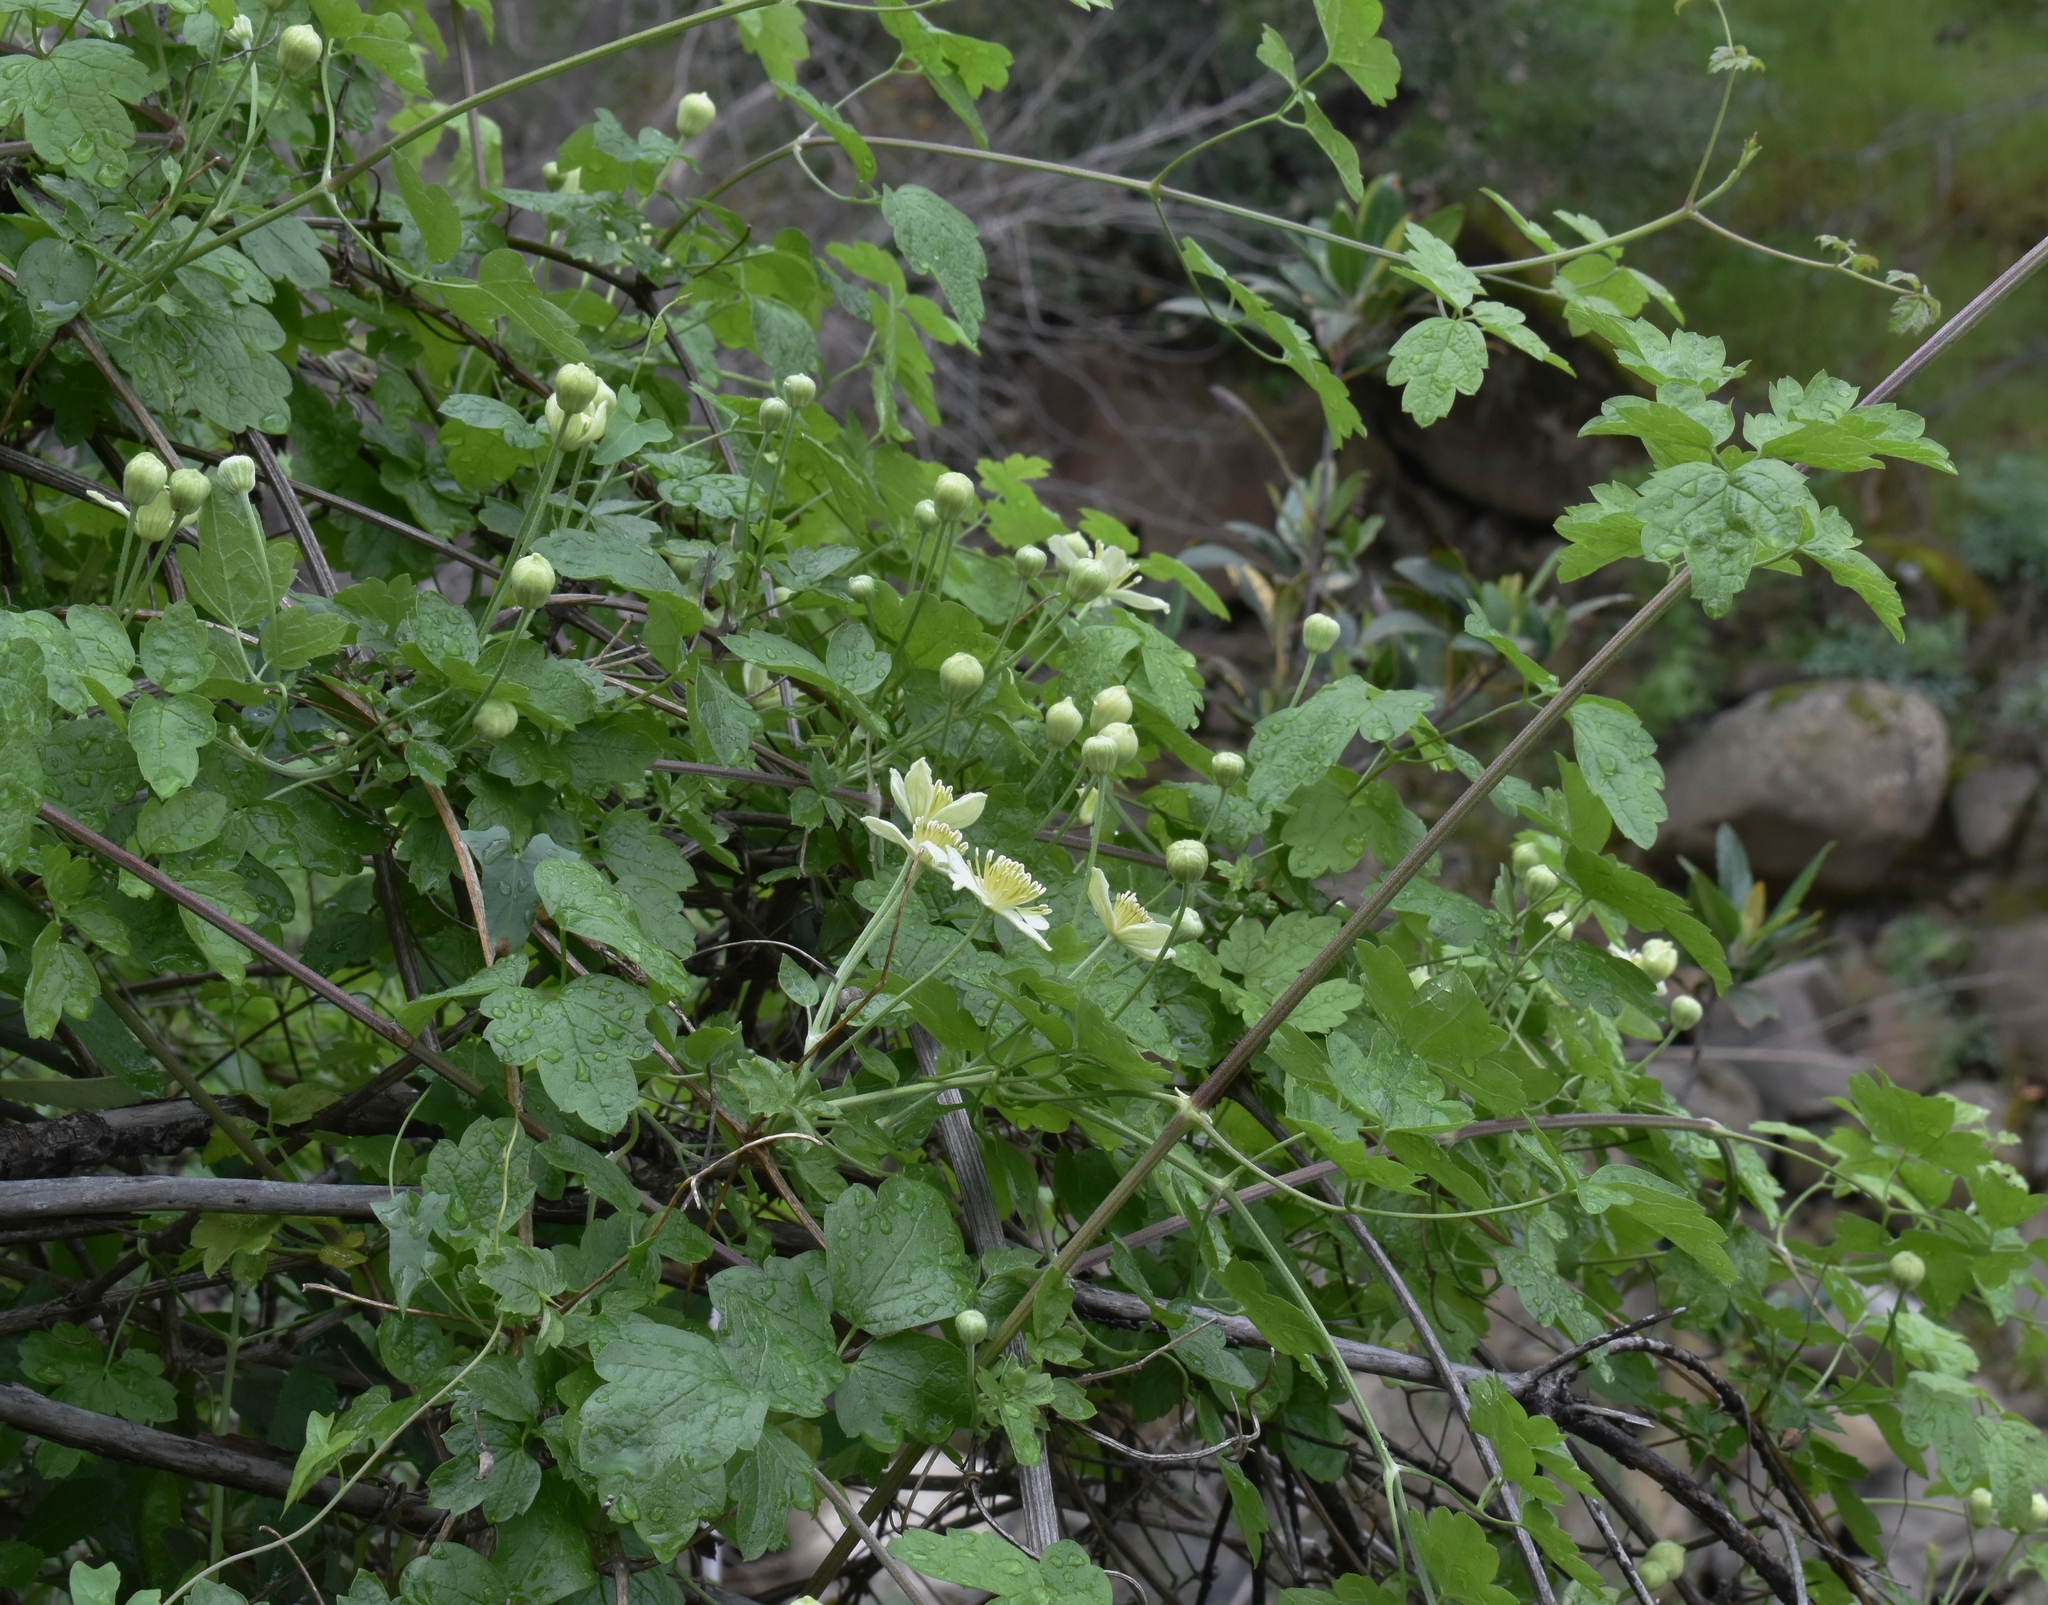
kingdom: Plantae
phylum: Tracheophyta
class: Magnoliopsida
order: Ranunculales
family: Ranunculaceae
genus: Clematis
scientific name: Clematis lasiantha
